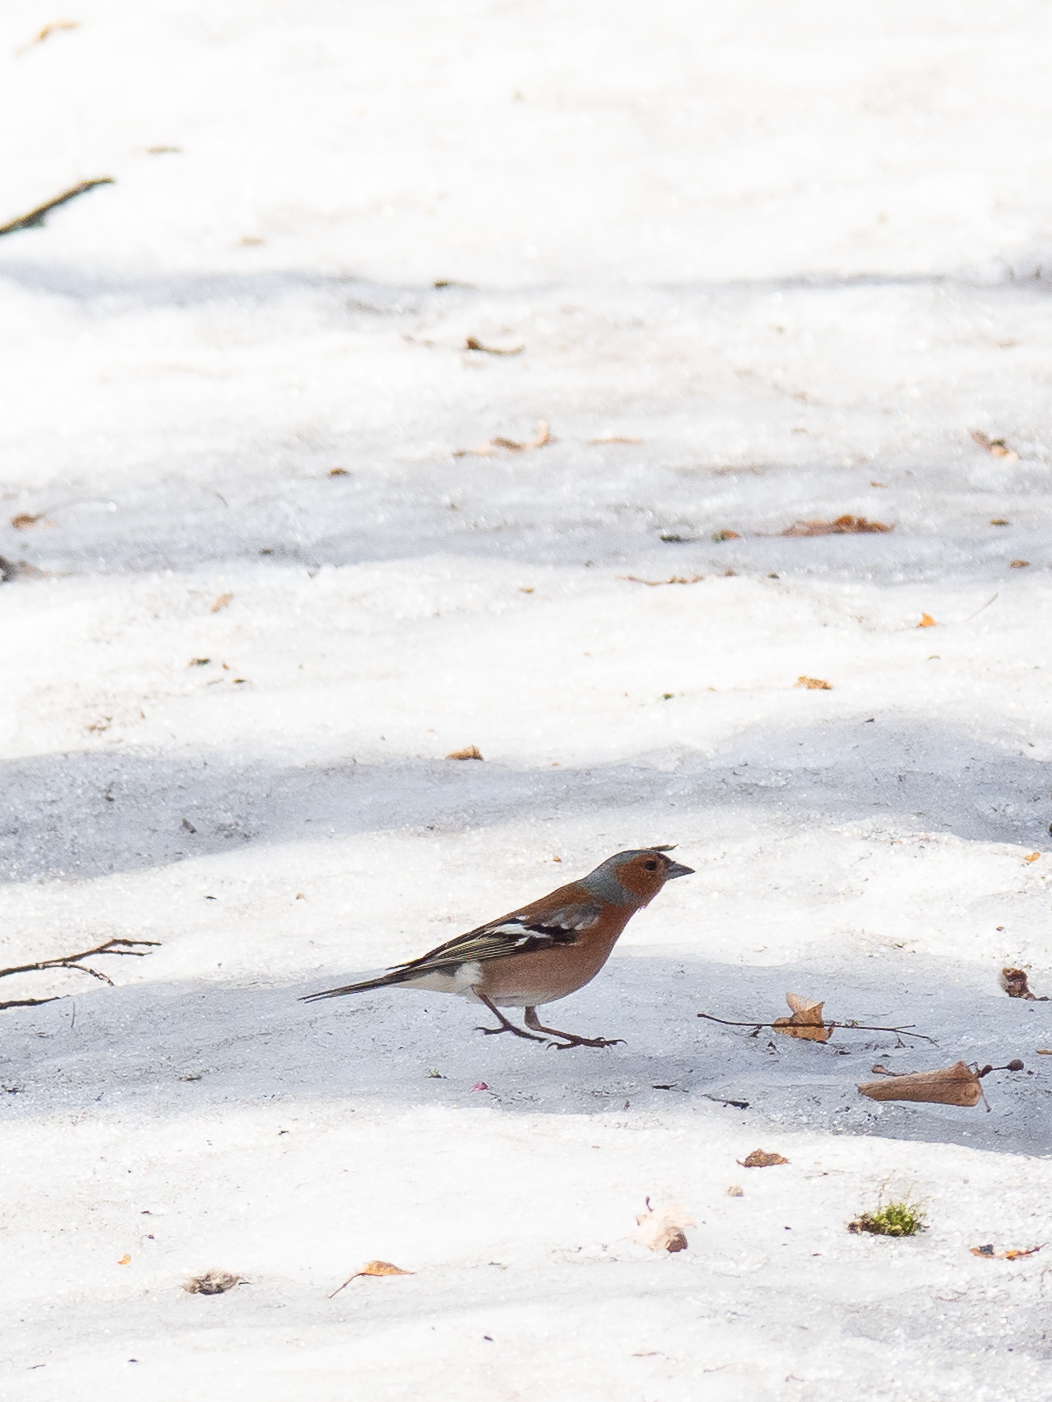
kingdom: Animalia
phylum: Chordata
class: Aves
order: Passeriformes
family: Fringillidae
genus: Fringilla
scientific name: Fringilla coelebs
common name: Common chaffinch
